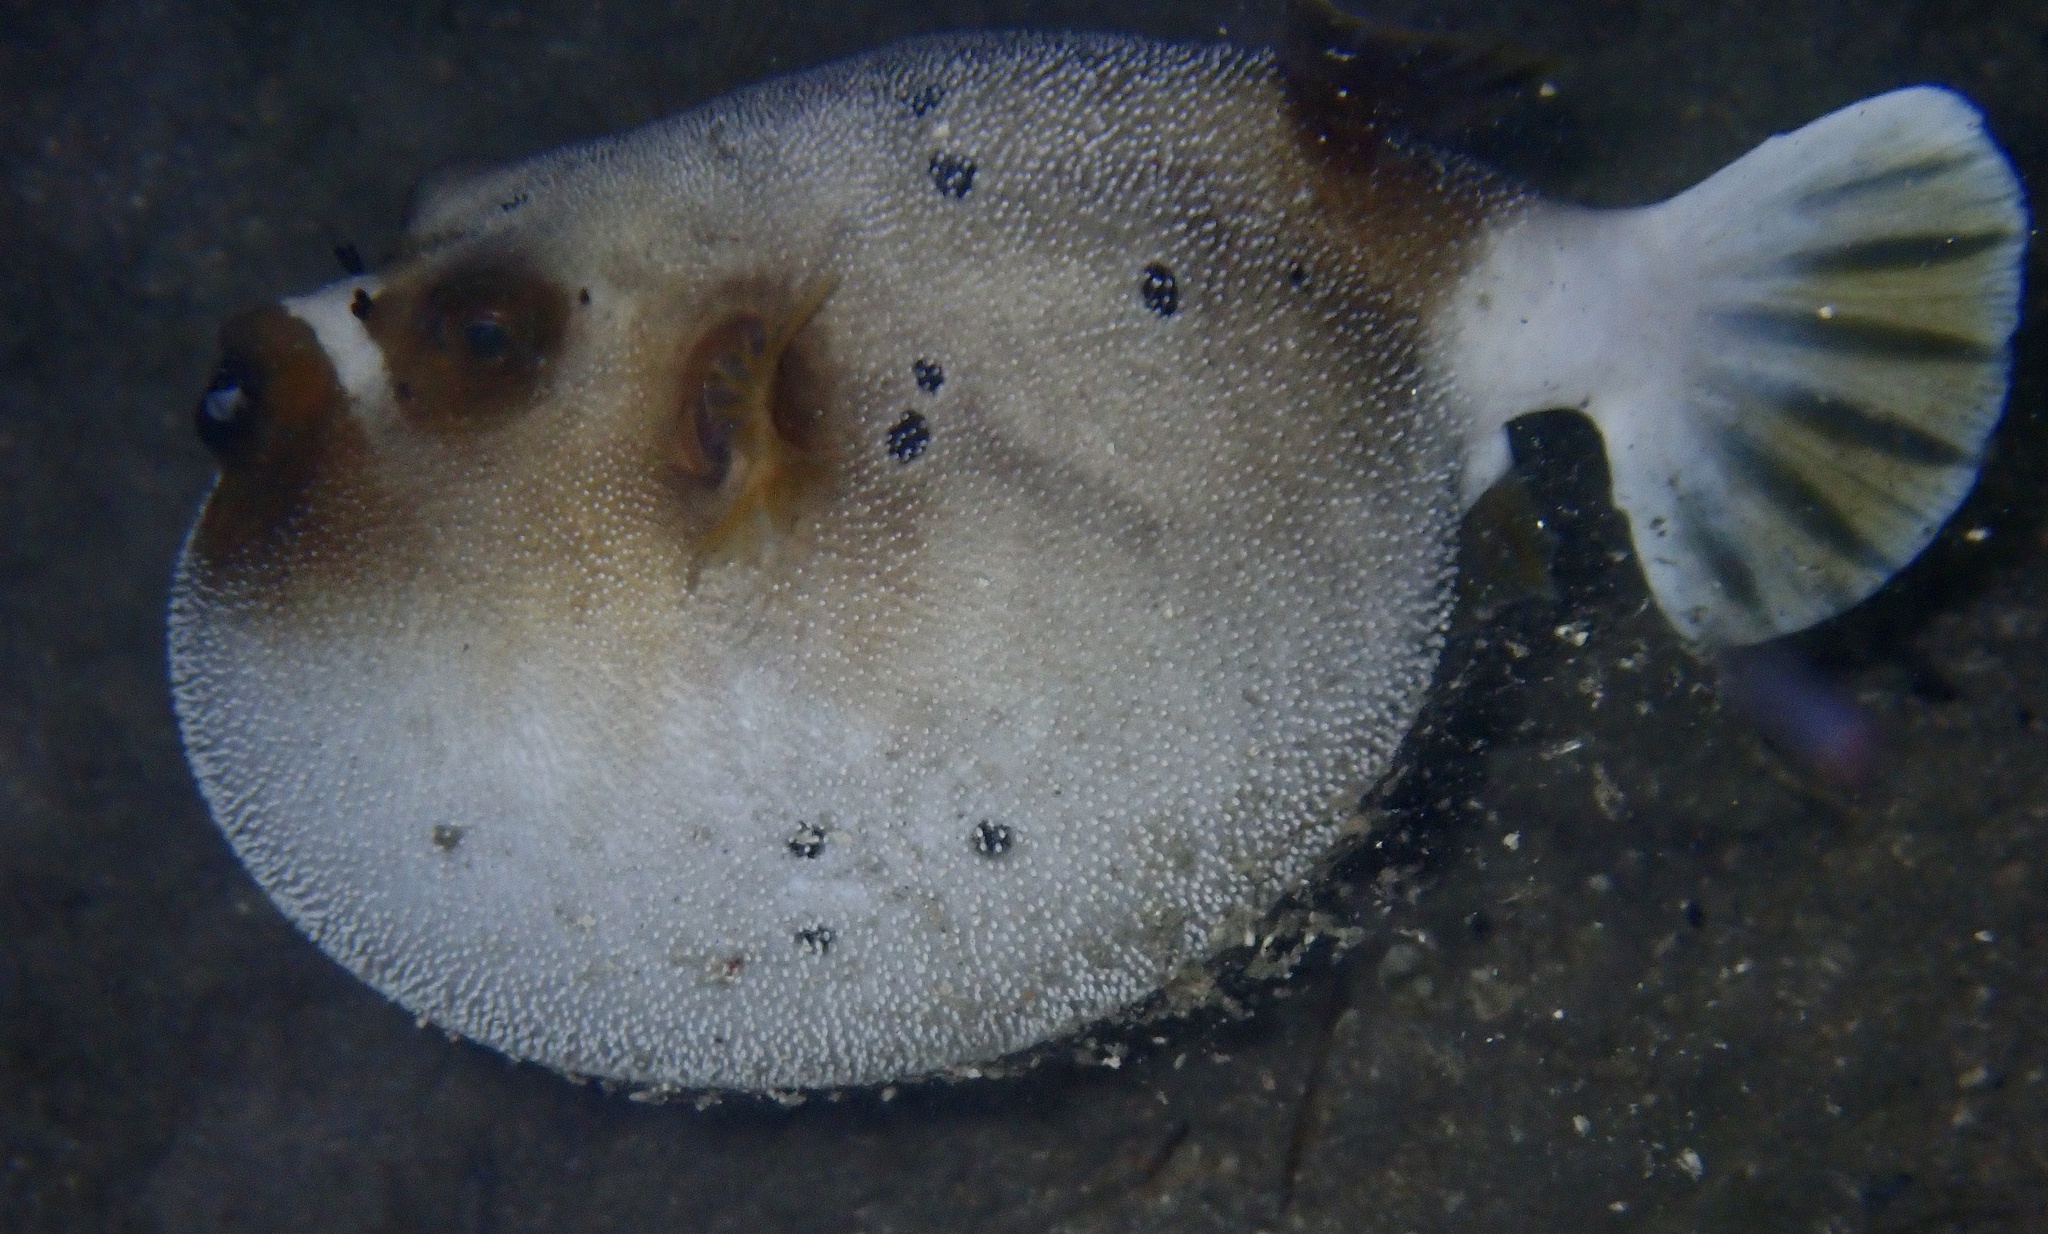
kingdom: Animalia
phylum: Chordata
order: Tetraodontiformes
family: Tetraodontidae
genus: Arothron
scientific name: Arothron nigropunctatus
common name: Black spotted blow fish
